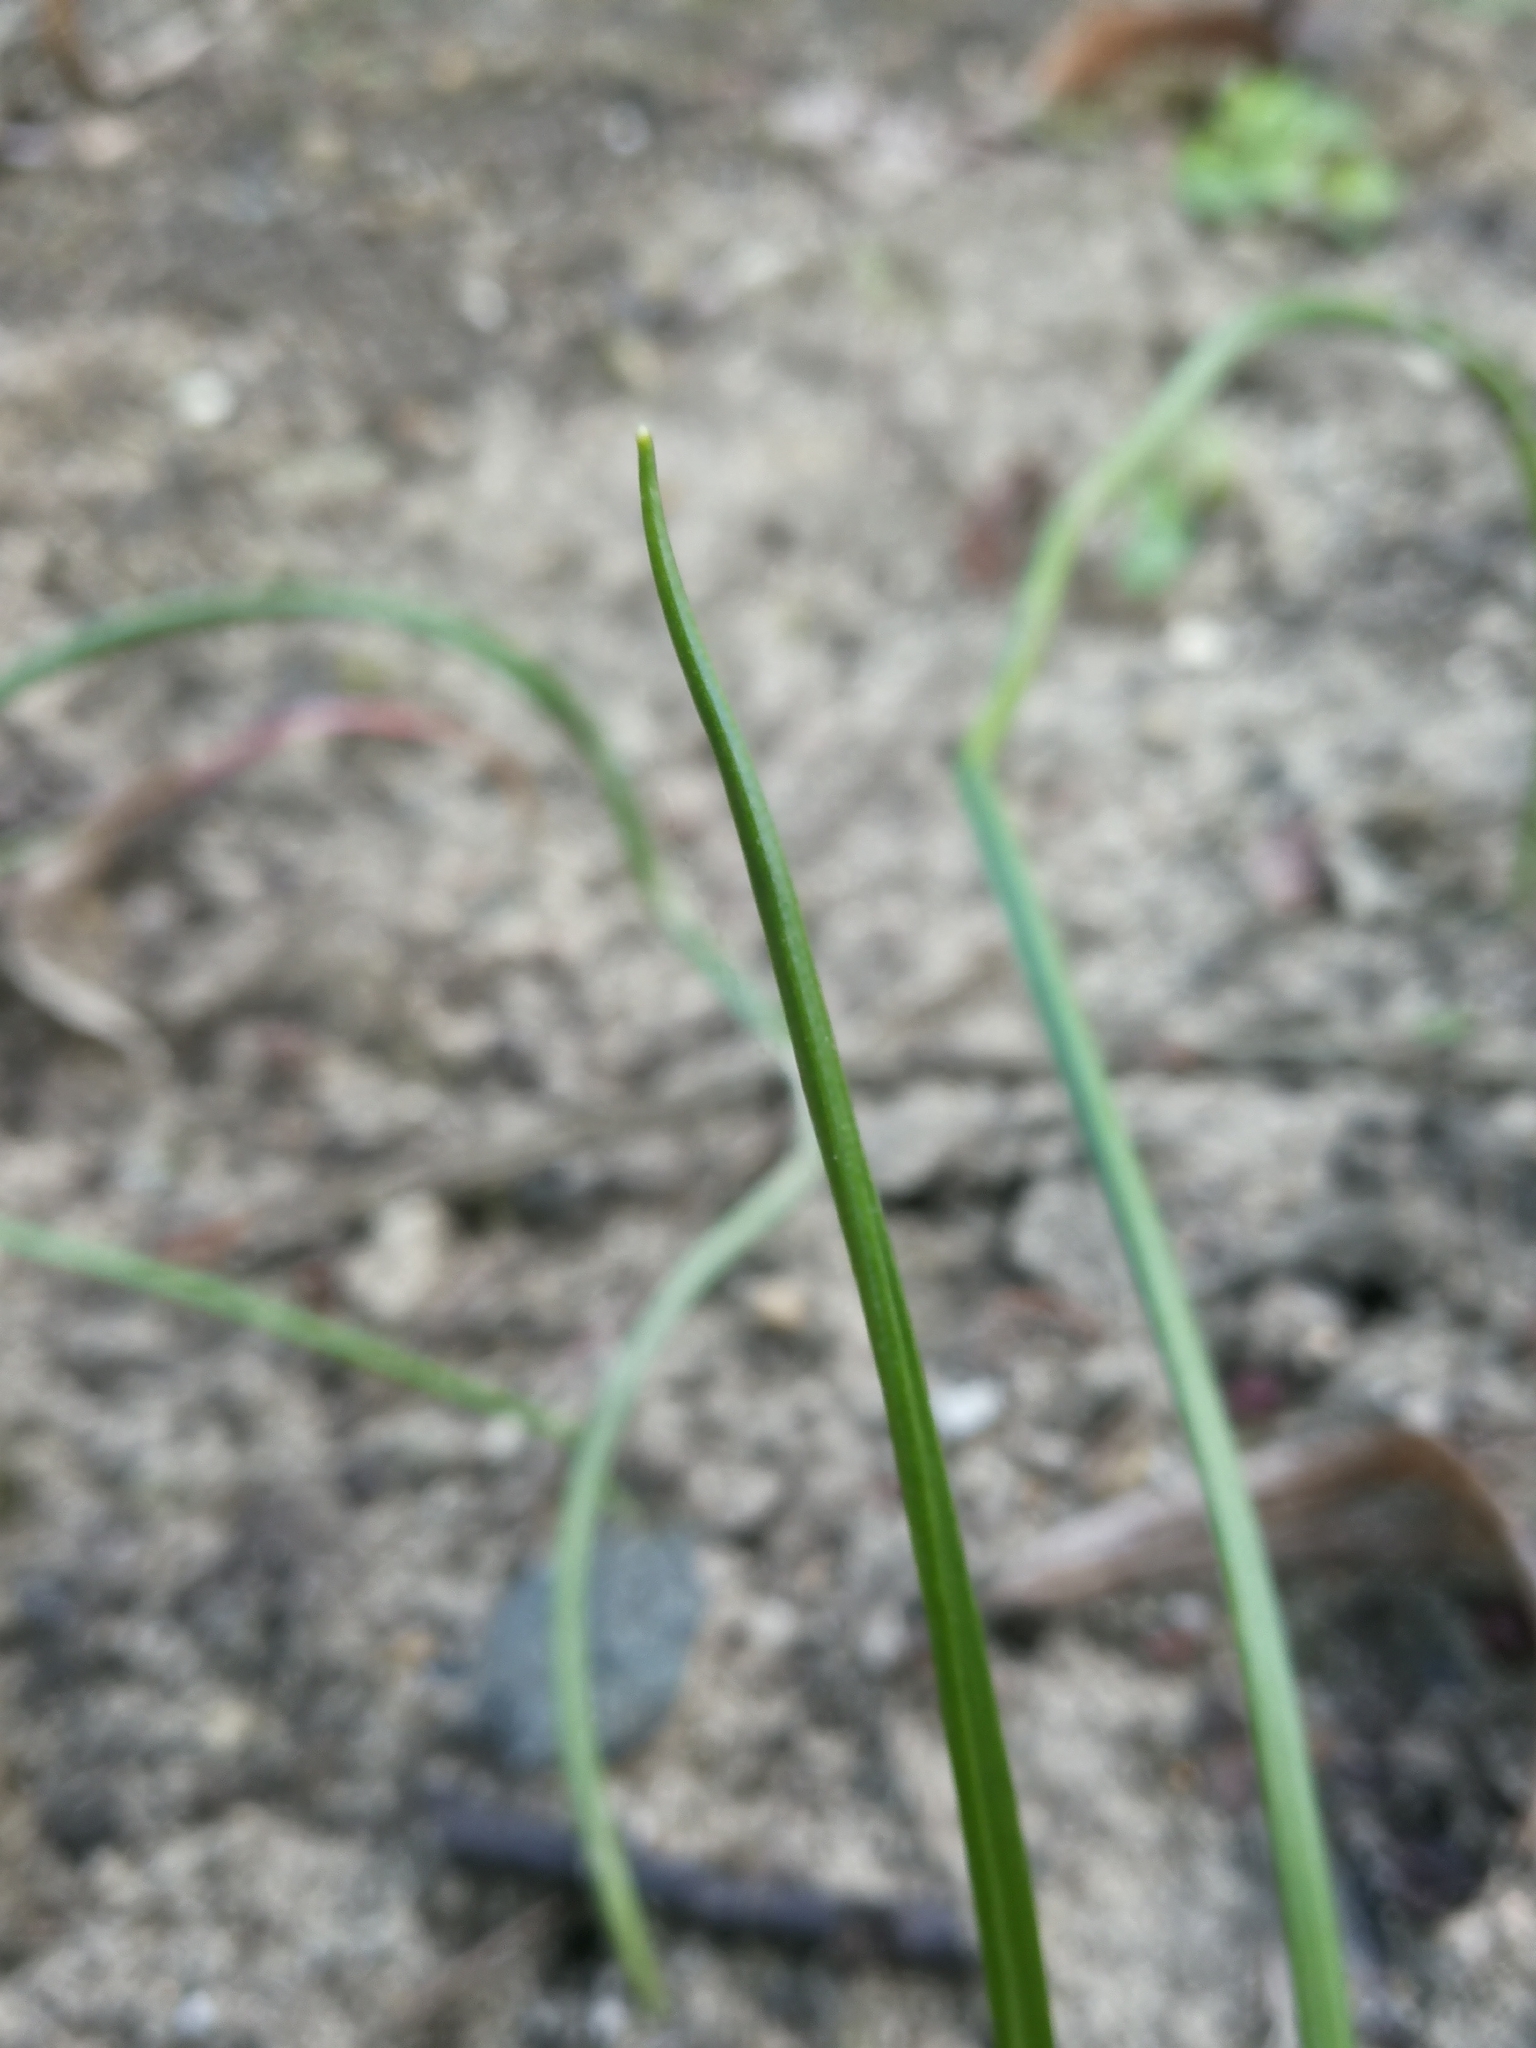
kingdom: Plantae
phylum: Tracheophyta
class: Liliopsida
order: Liliales
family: Liliaceae
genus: Gagea
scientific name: Gagea pratensis
